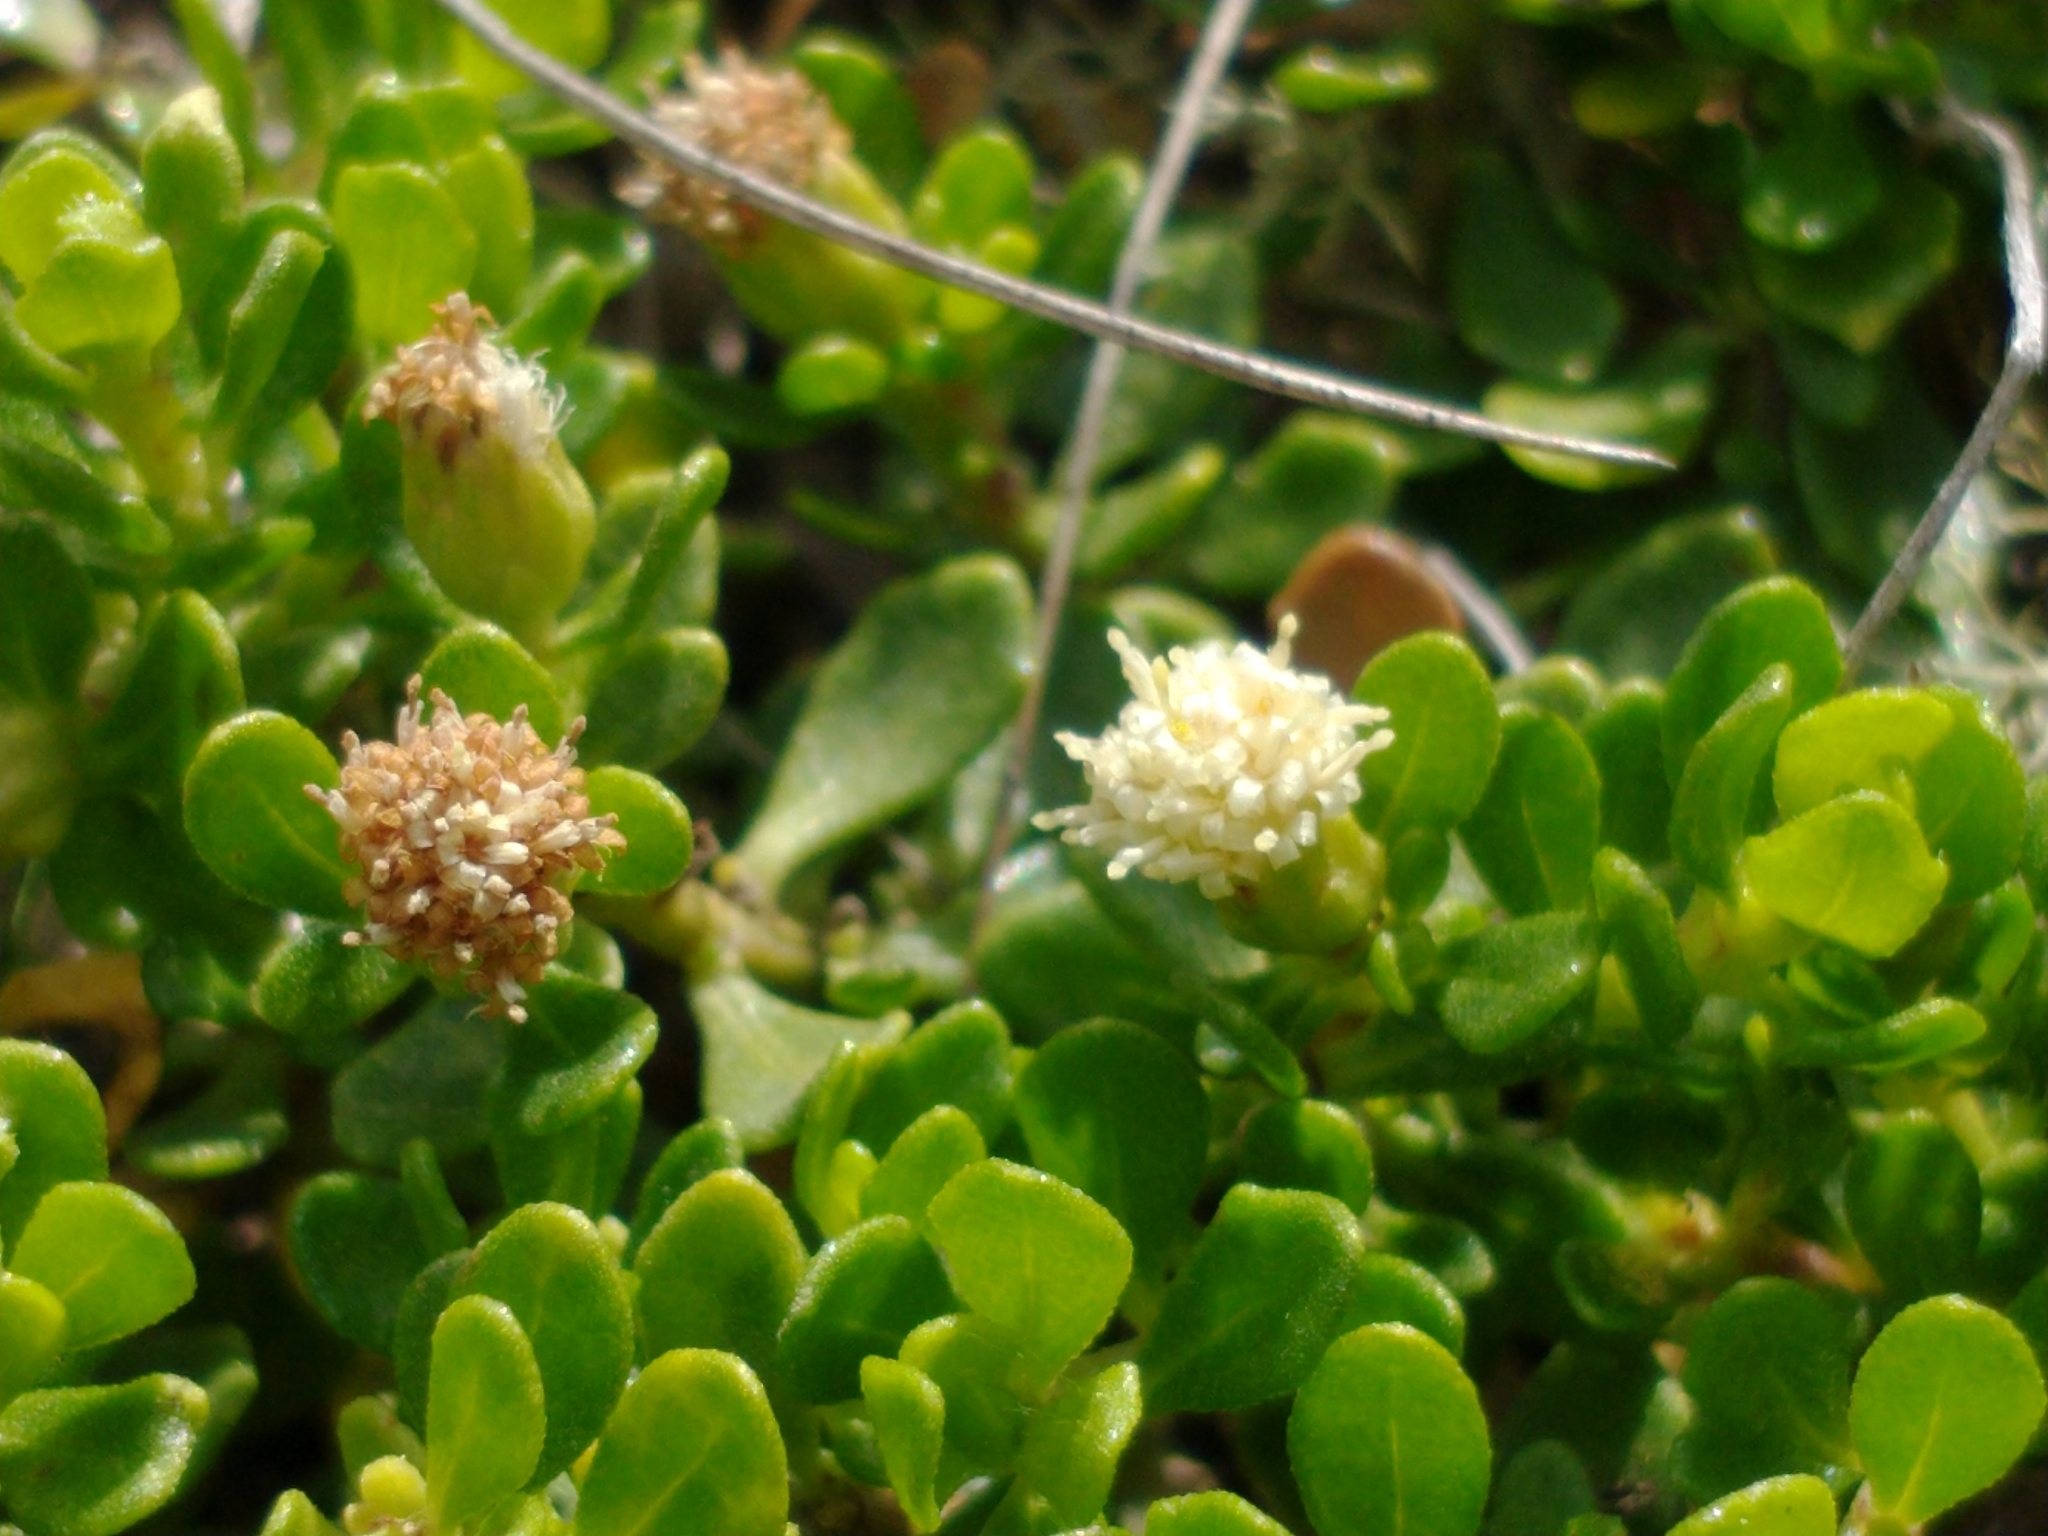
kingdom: Plantae
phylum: Tracheophyta
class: Magnoliopsida
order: Asterales
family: Asteraceae
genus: Baccharis
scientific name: Baccharis patagonica
